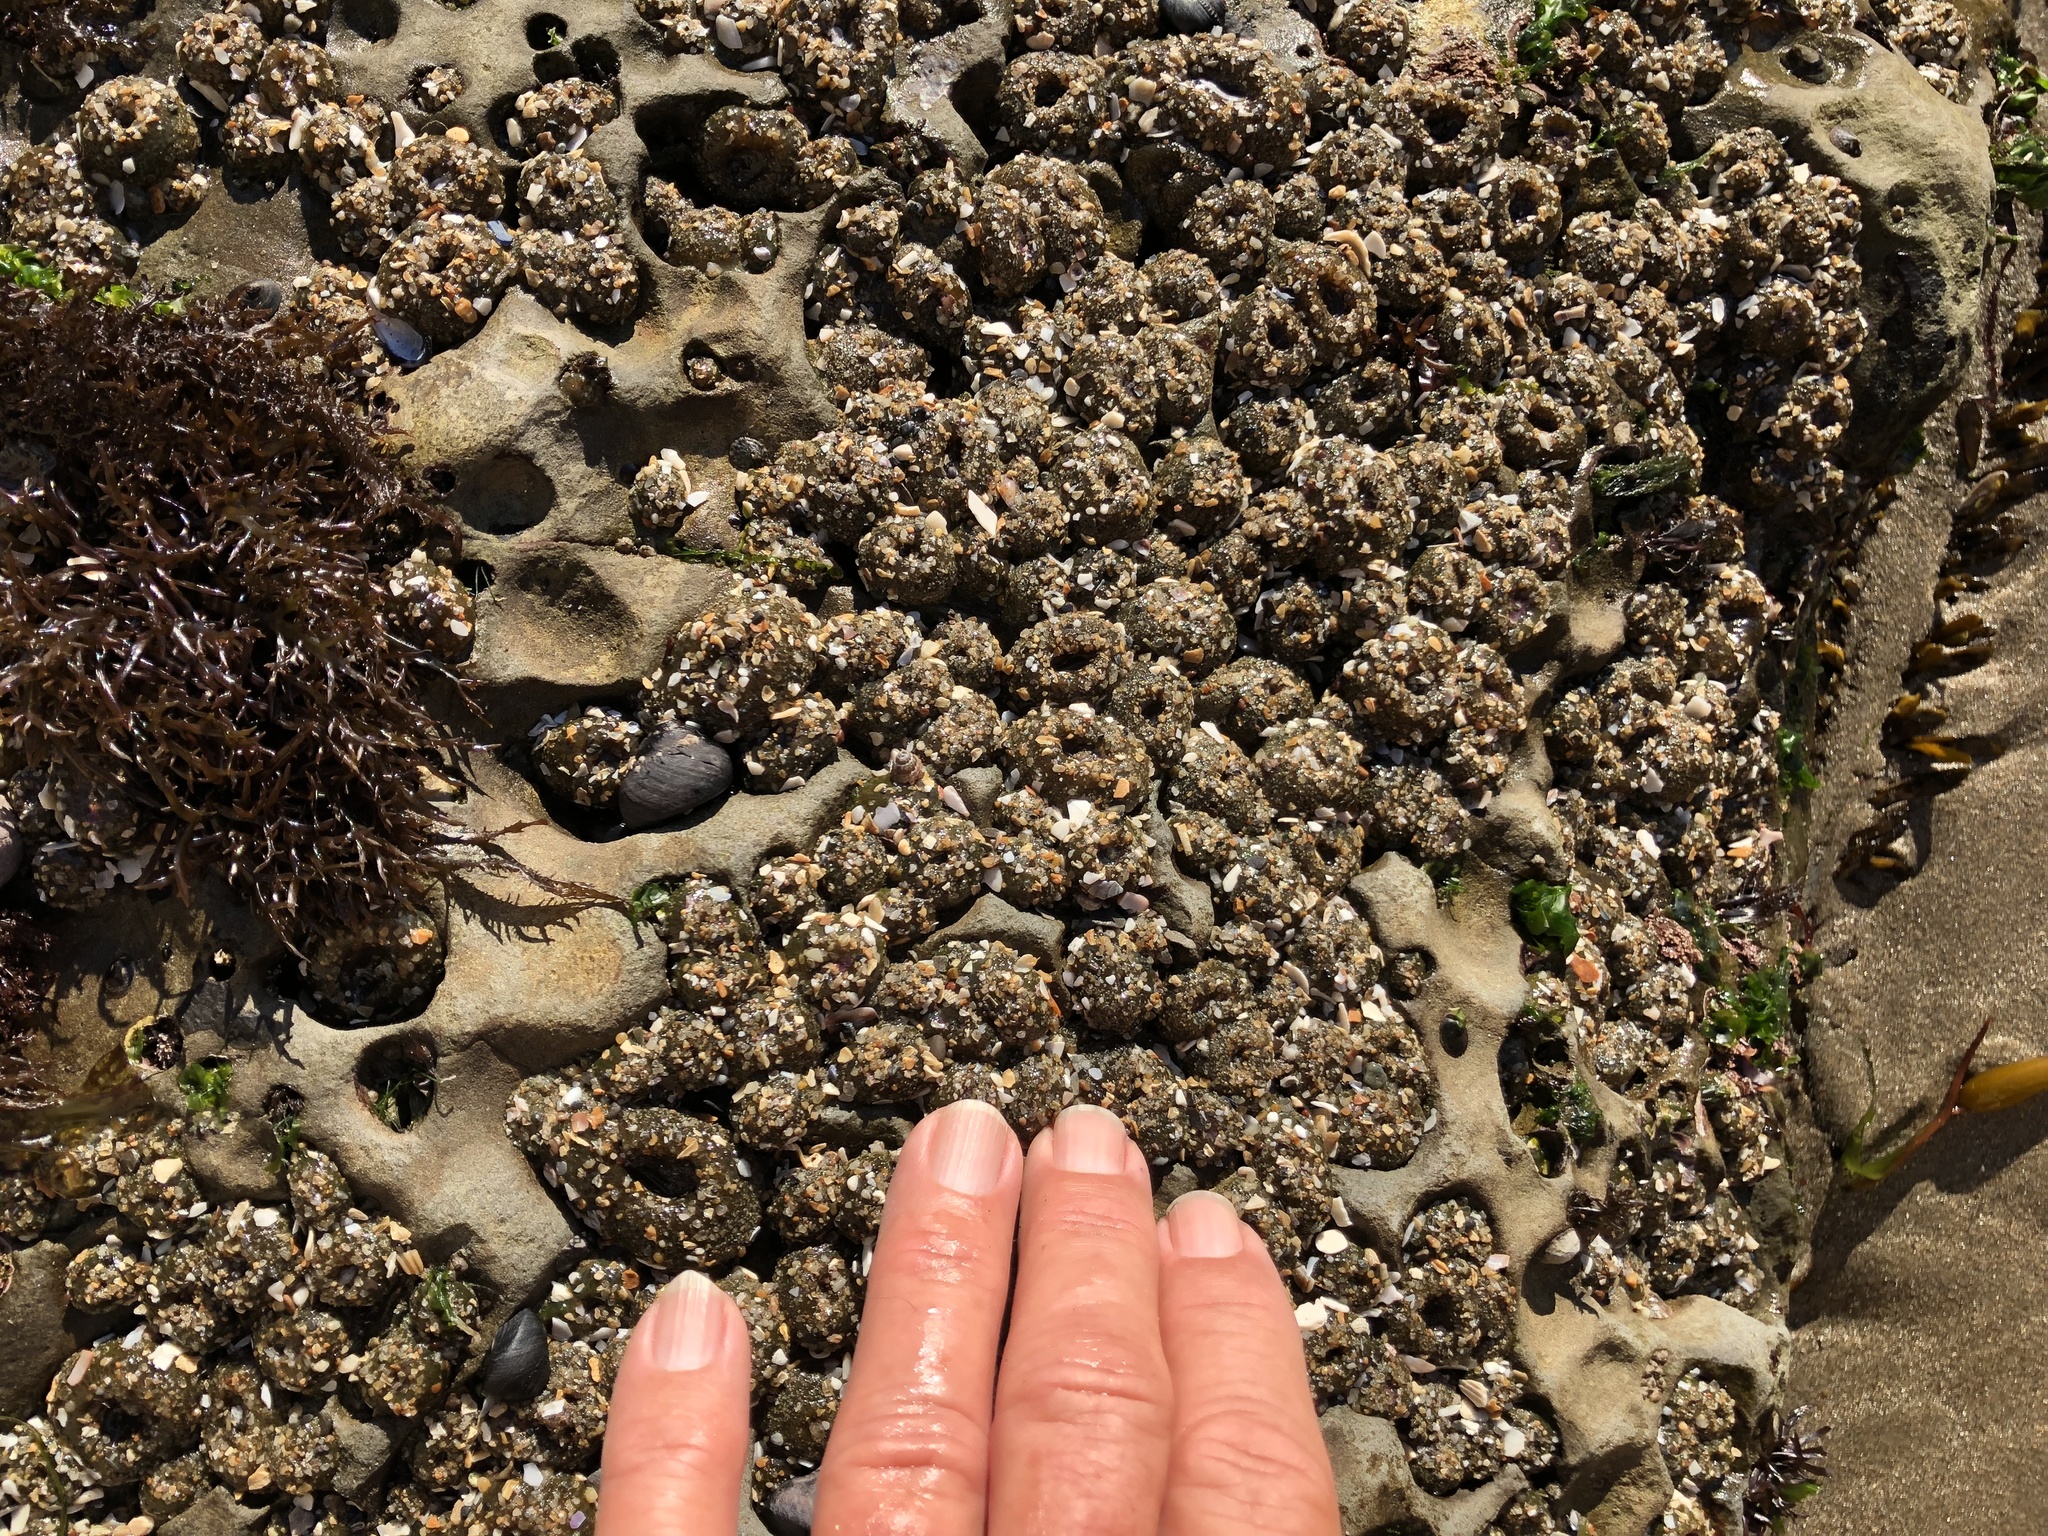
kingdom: Animalia
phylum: Cnidaria
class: Anthozoa
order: Actiniaria
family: Actiniidae
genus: Anthopleura
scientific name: Anthopleura elegantissima
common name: Clonal anemone
